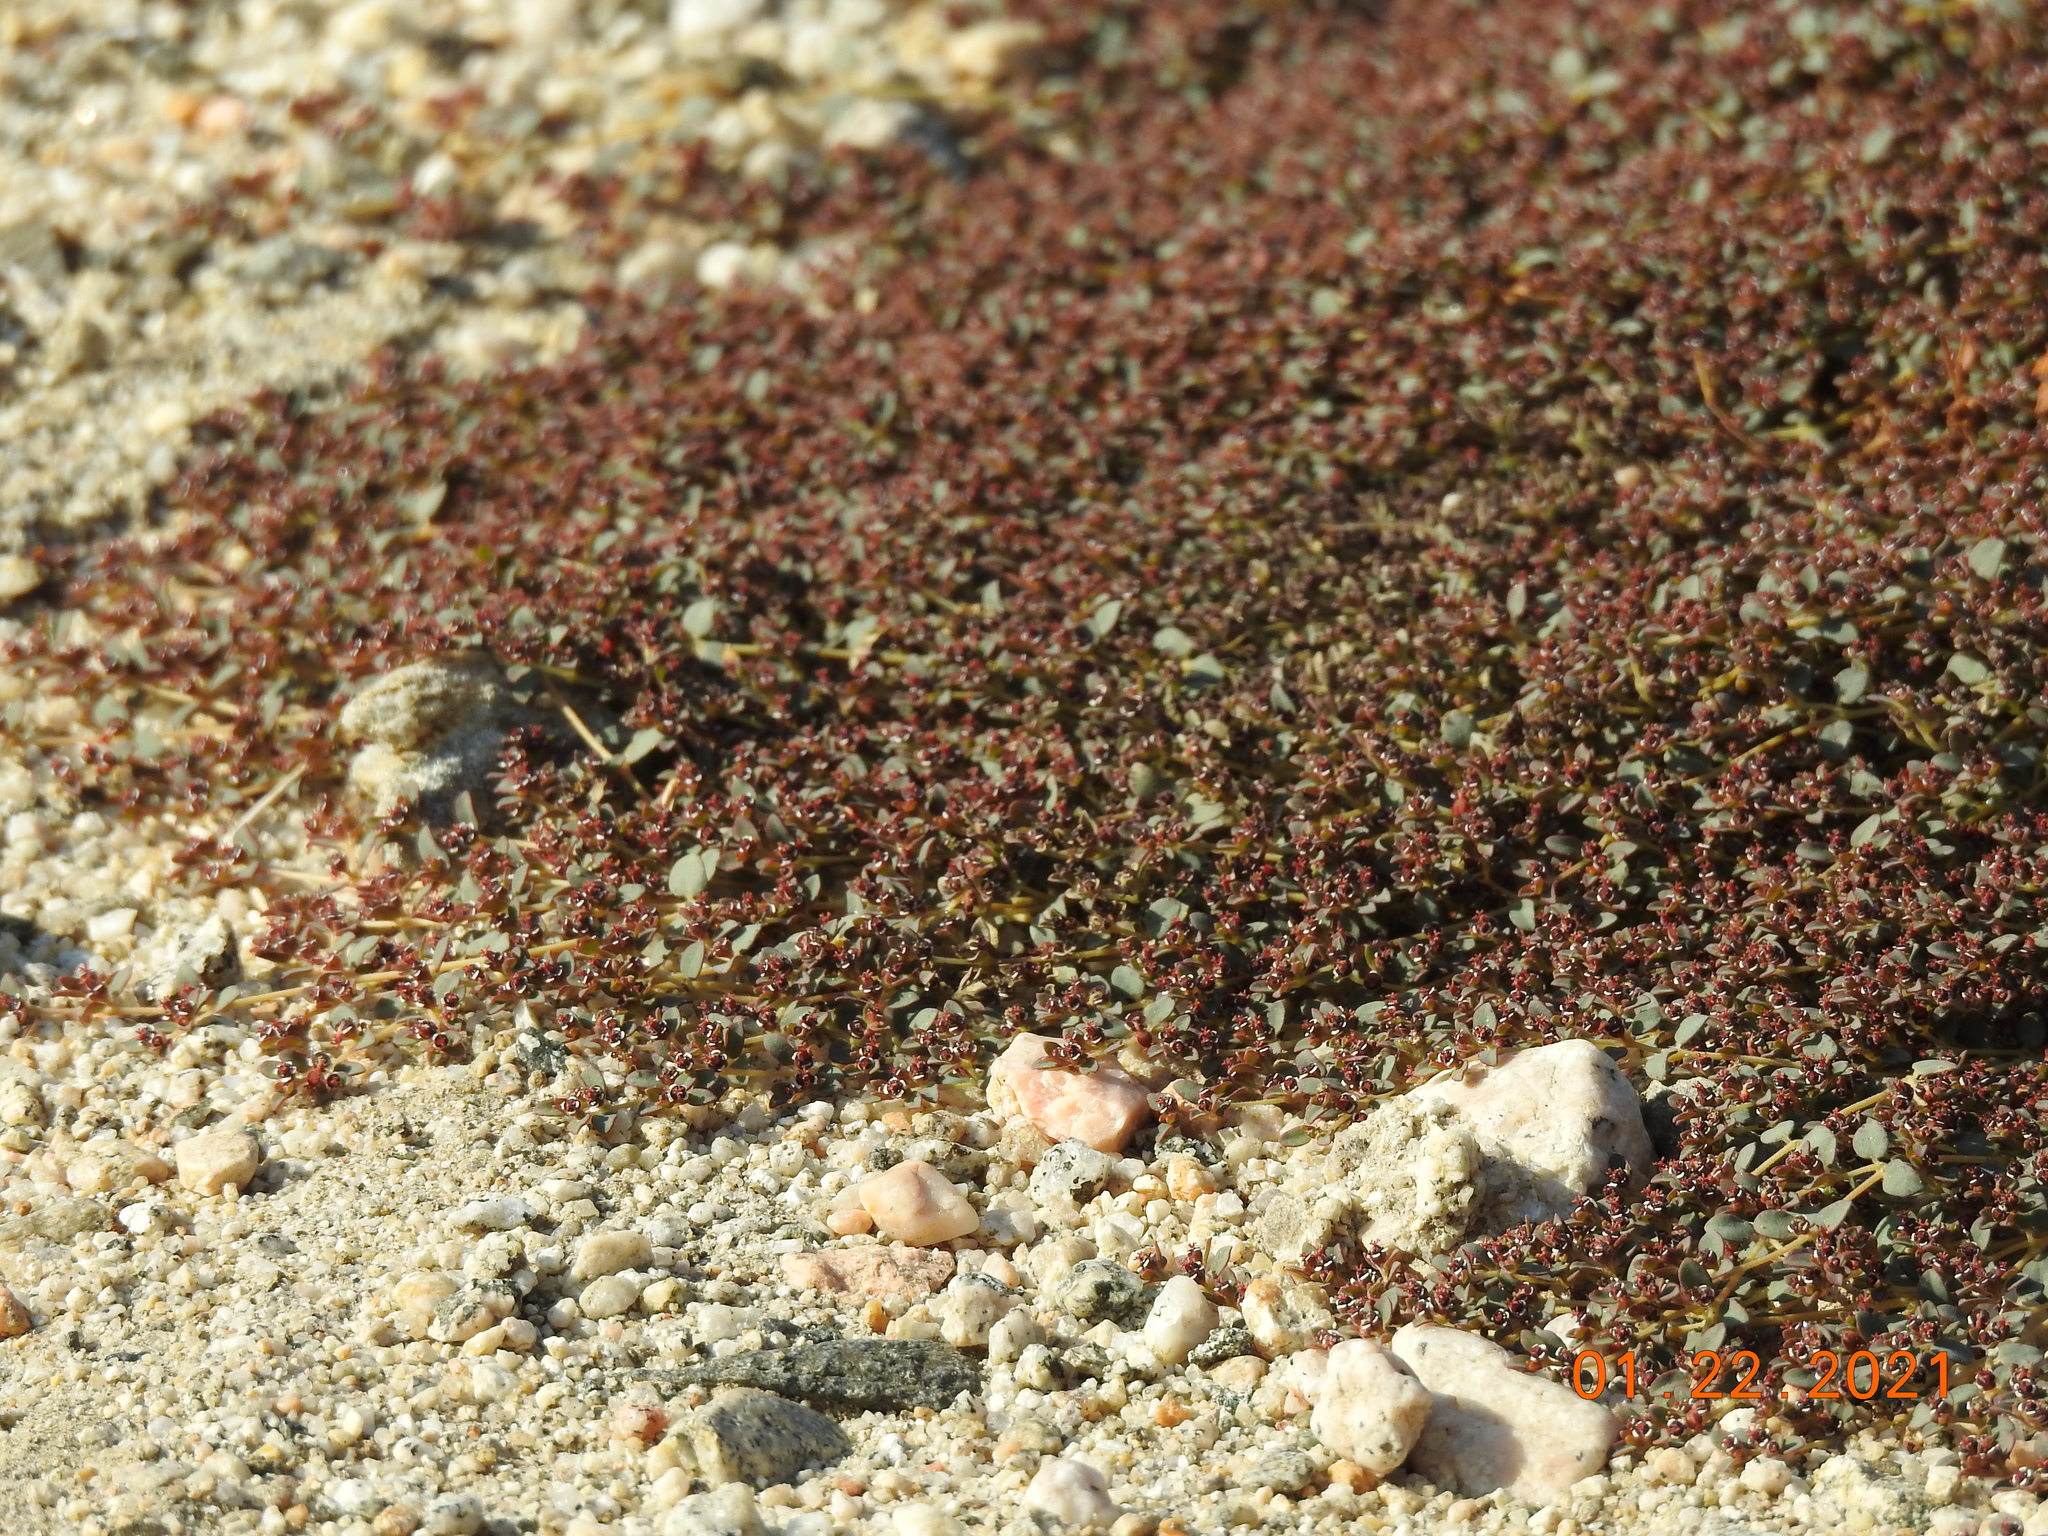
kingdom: Plantae
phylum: Tracheophyta
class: Magnoliopsida
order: Malpighiales
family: Euphorbiaceae
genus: Euphorbia
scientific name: Euphorbia polycarpa
